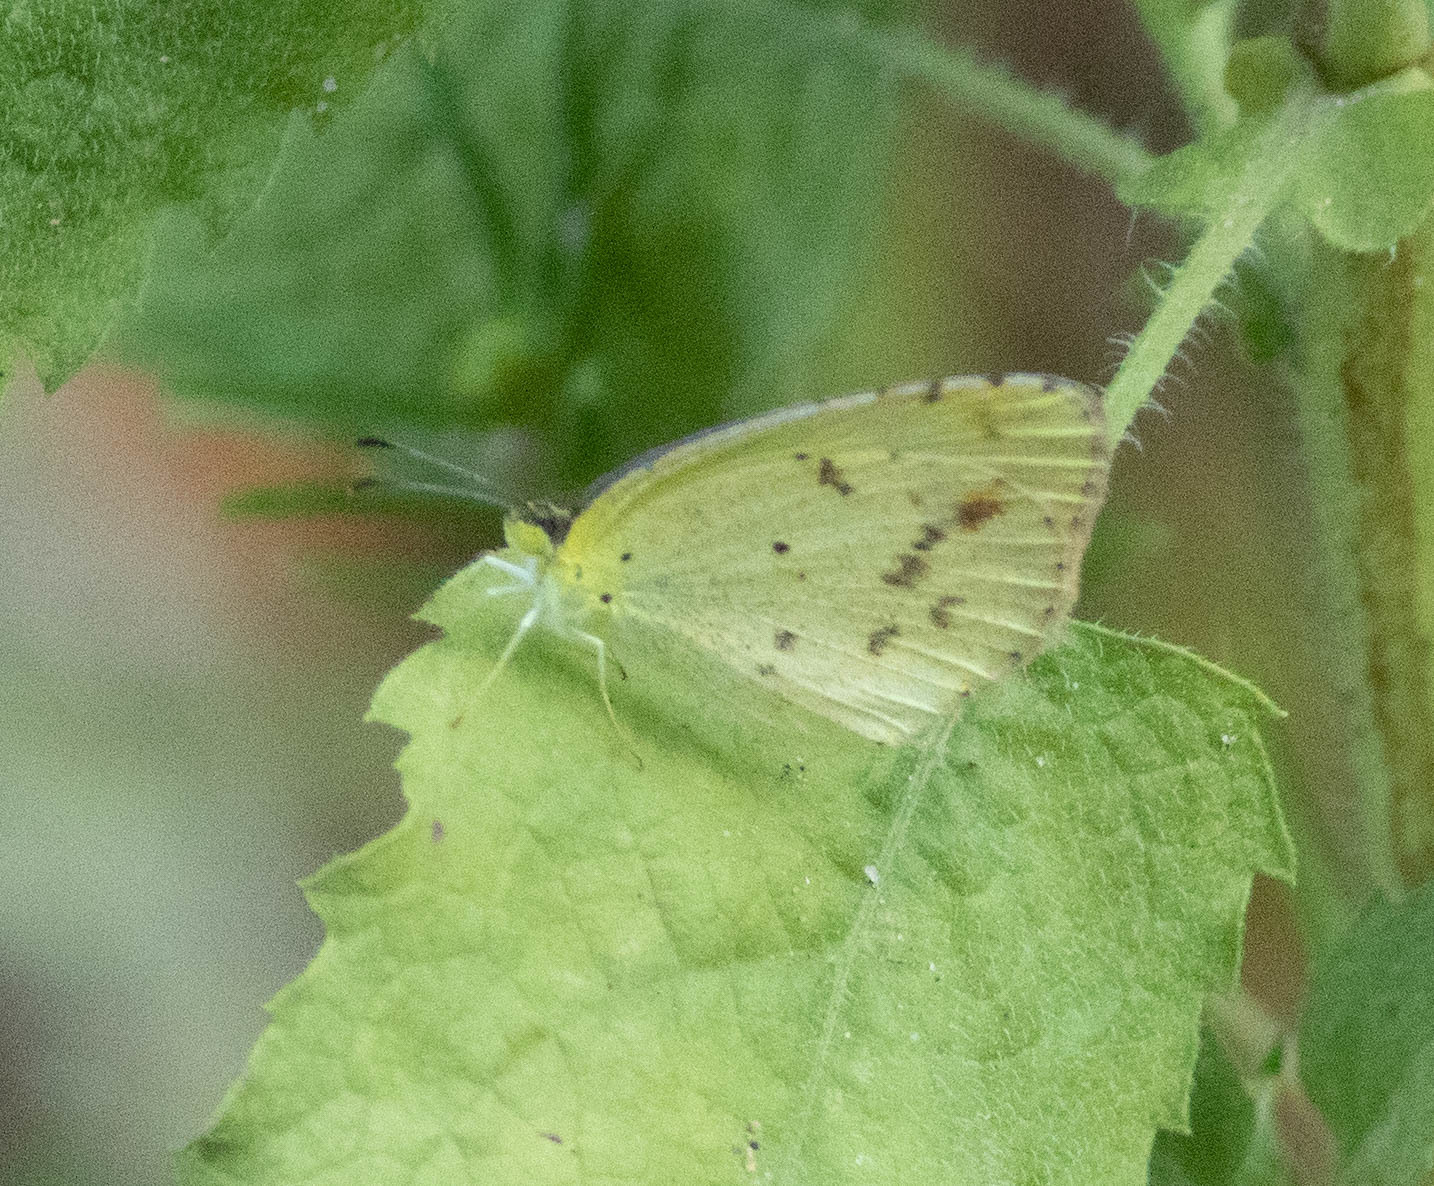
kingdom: Animalia
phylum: Arthropoda
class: Insecta
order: Lepidoptera
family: Pieridae
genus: Pyrisitia
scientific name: Pyrisitia lisa
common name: Little yellow
